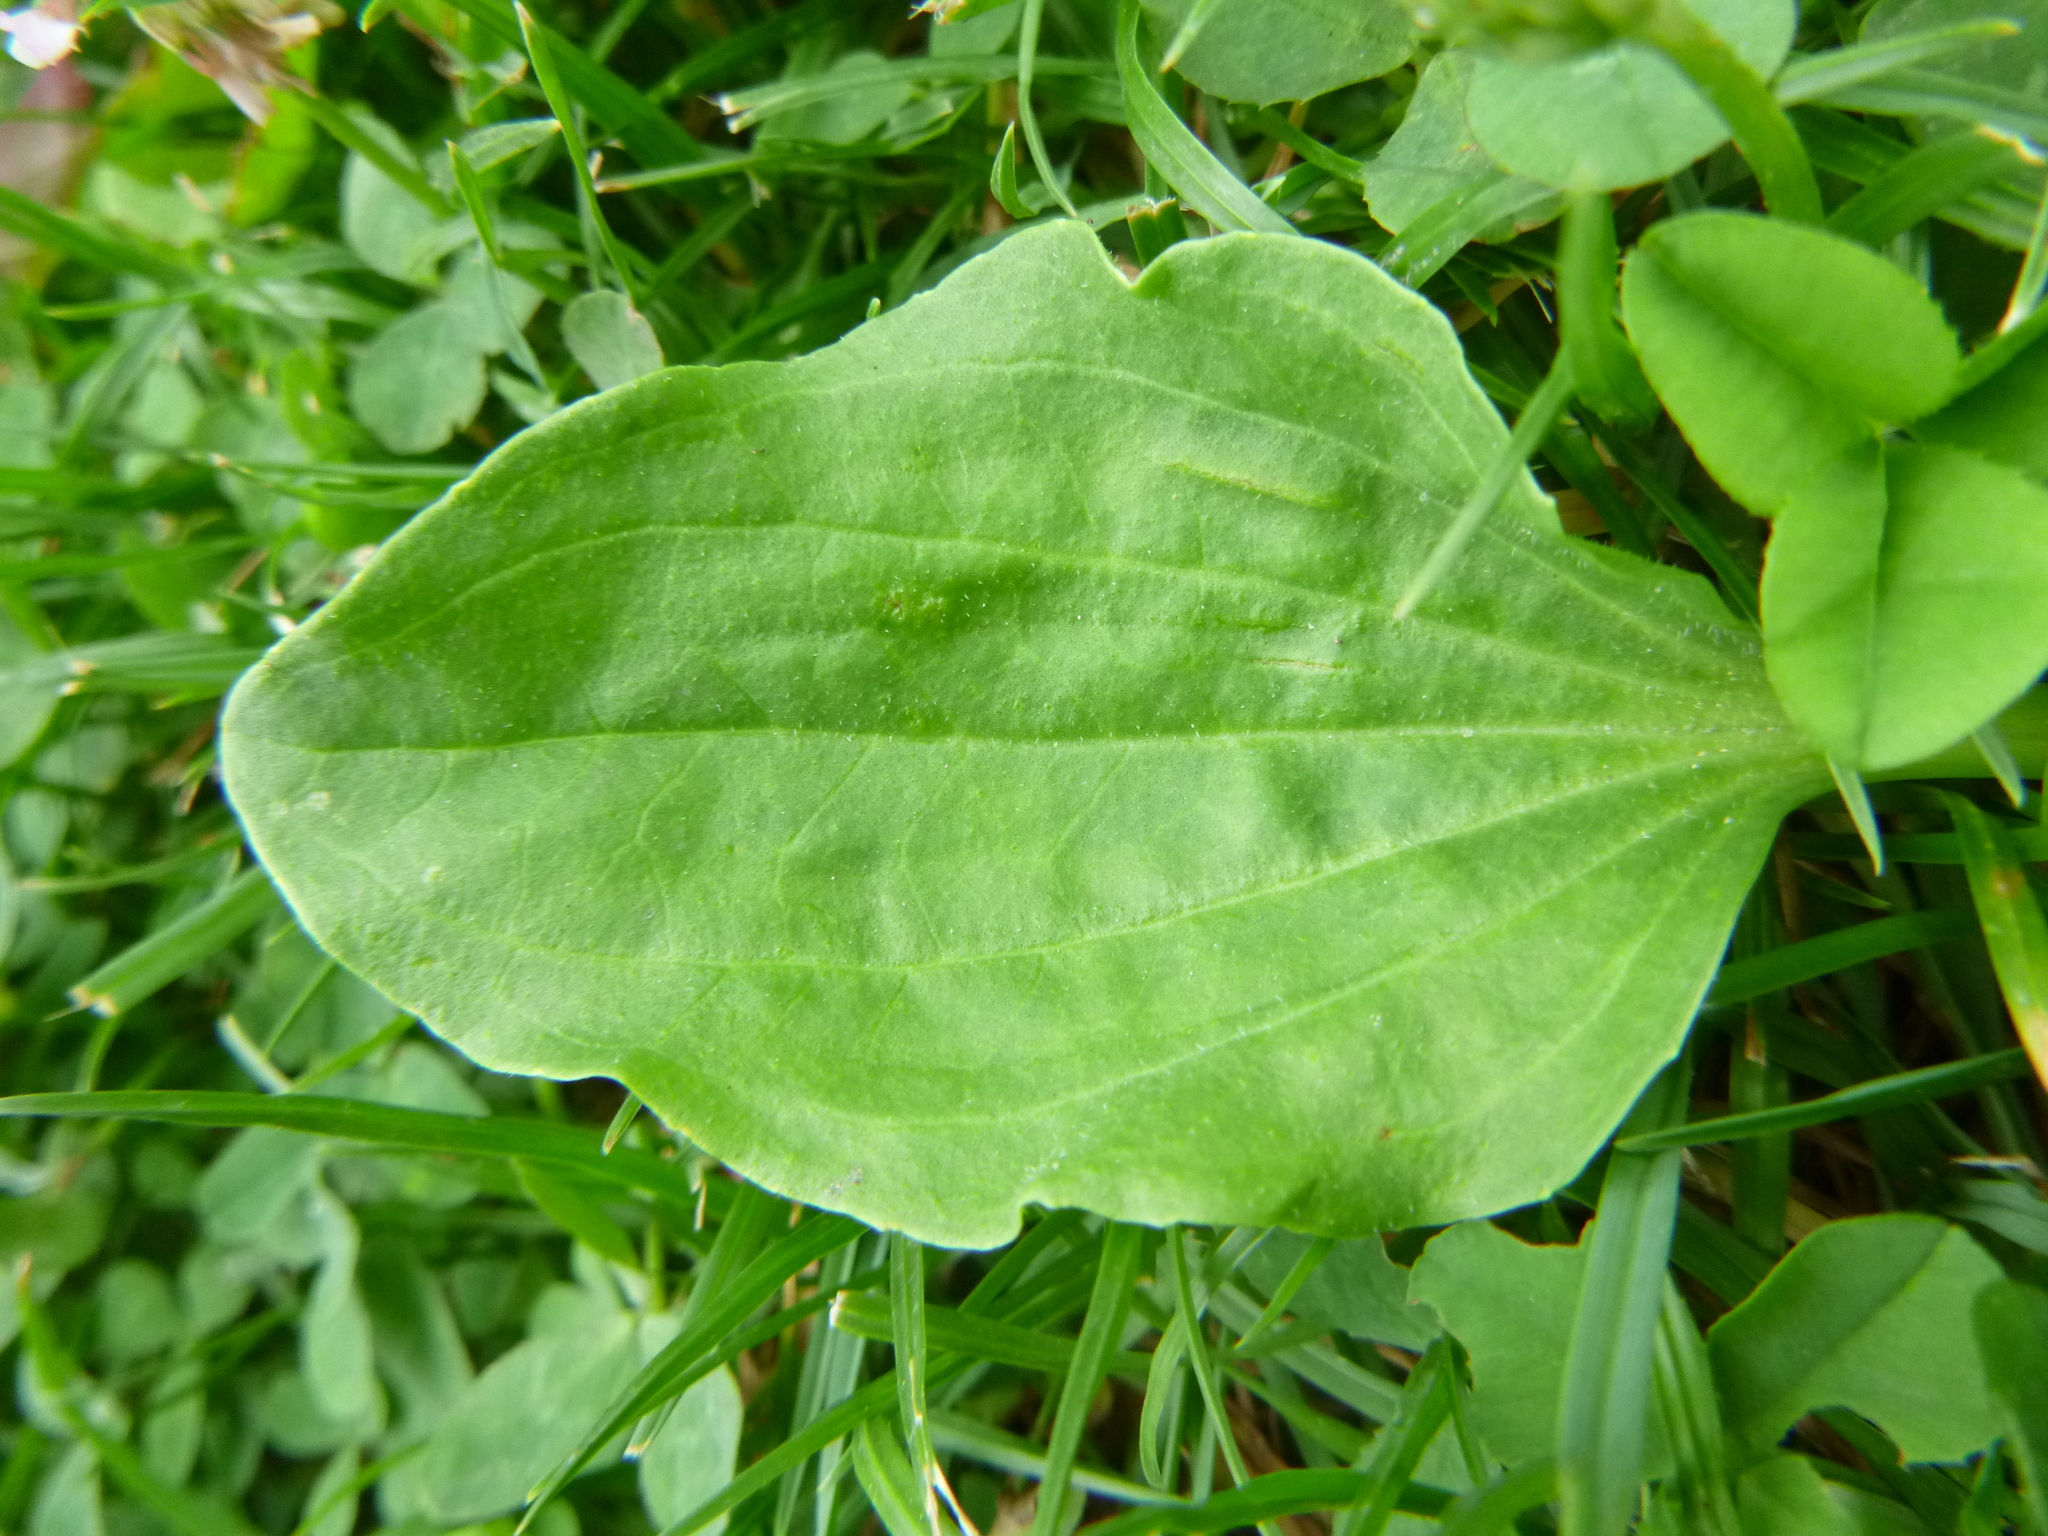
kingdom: Plantae
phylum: Tracheophyta
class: Magnoliopsida
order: Lamiales
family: Plantaginaceae
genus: Plantago
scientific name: Plantago major
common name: Common plantain
